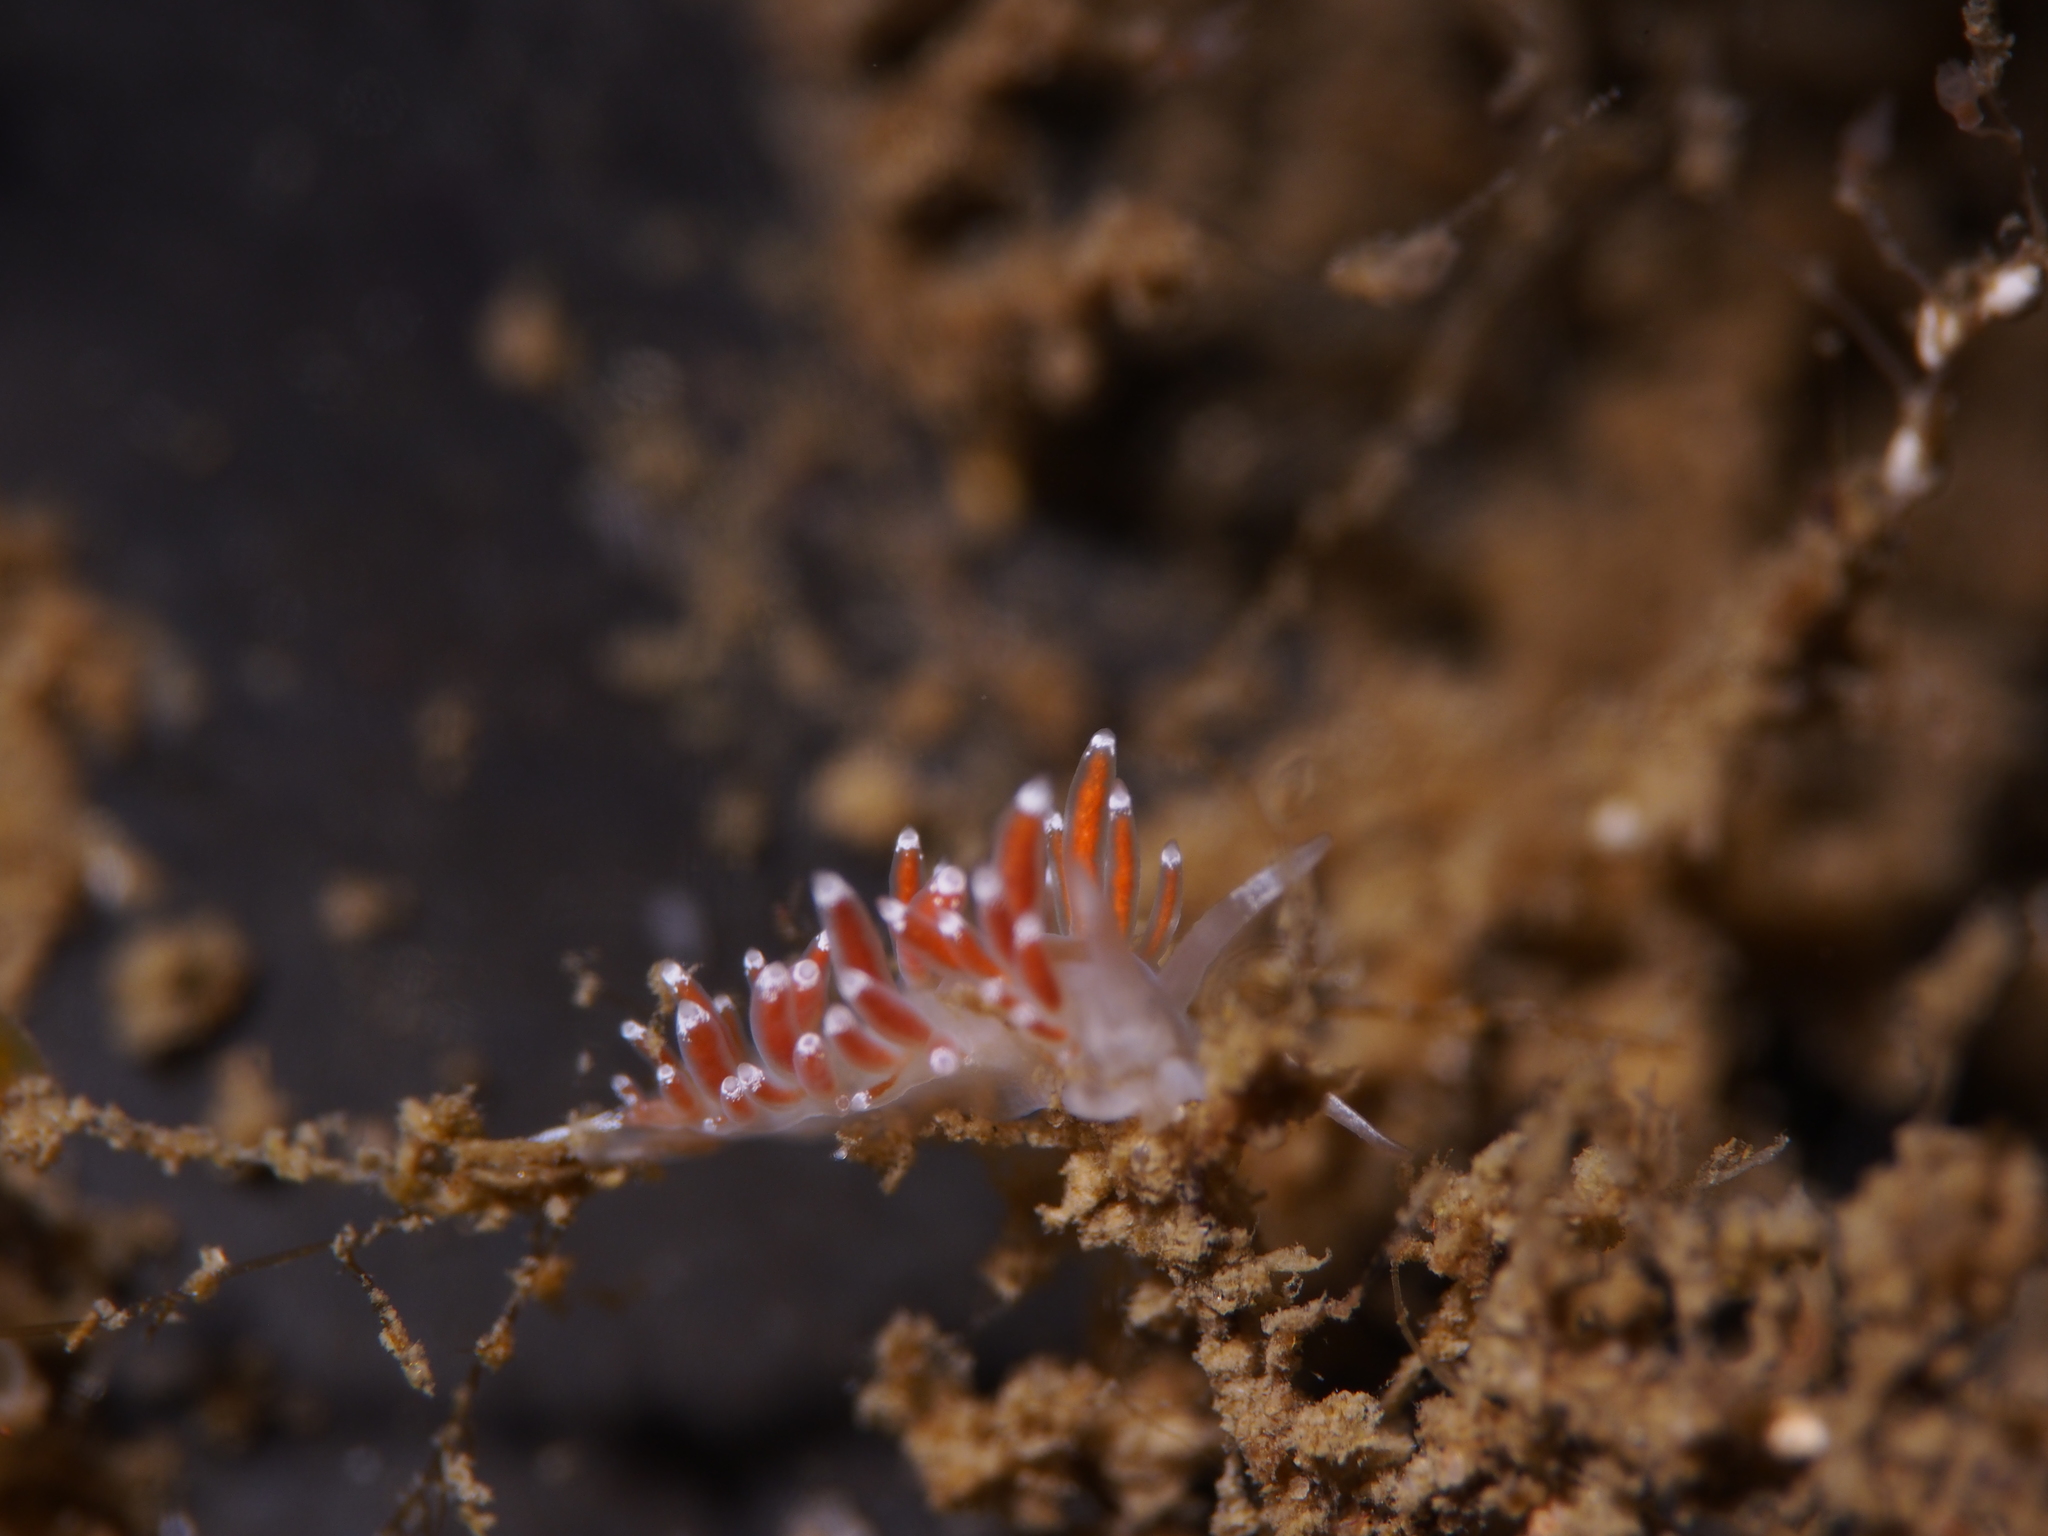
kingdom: Animalia
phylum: Mollusca
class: Gastropoda
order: Nudibranchia
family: Coryphellidae
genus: Coryphella
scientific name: Coryphella gracilis
